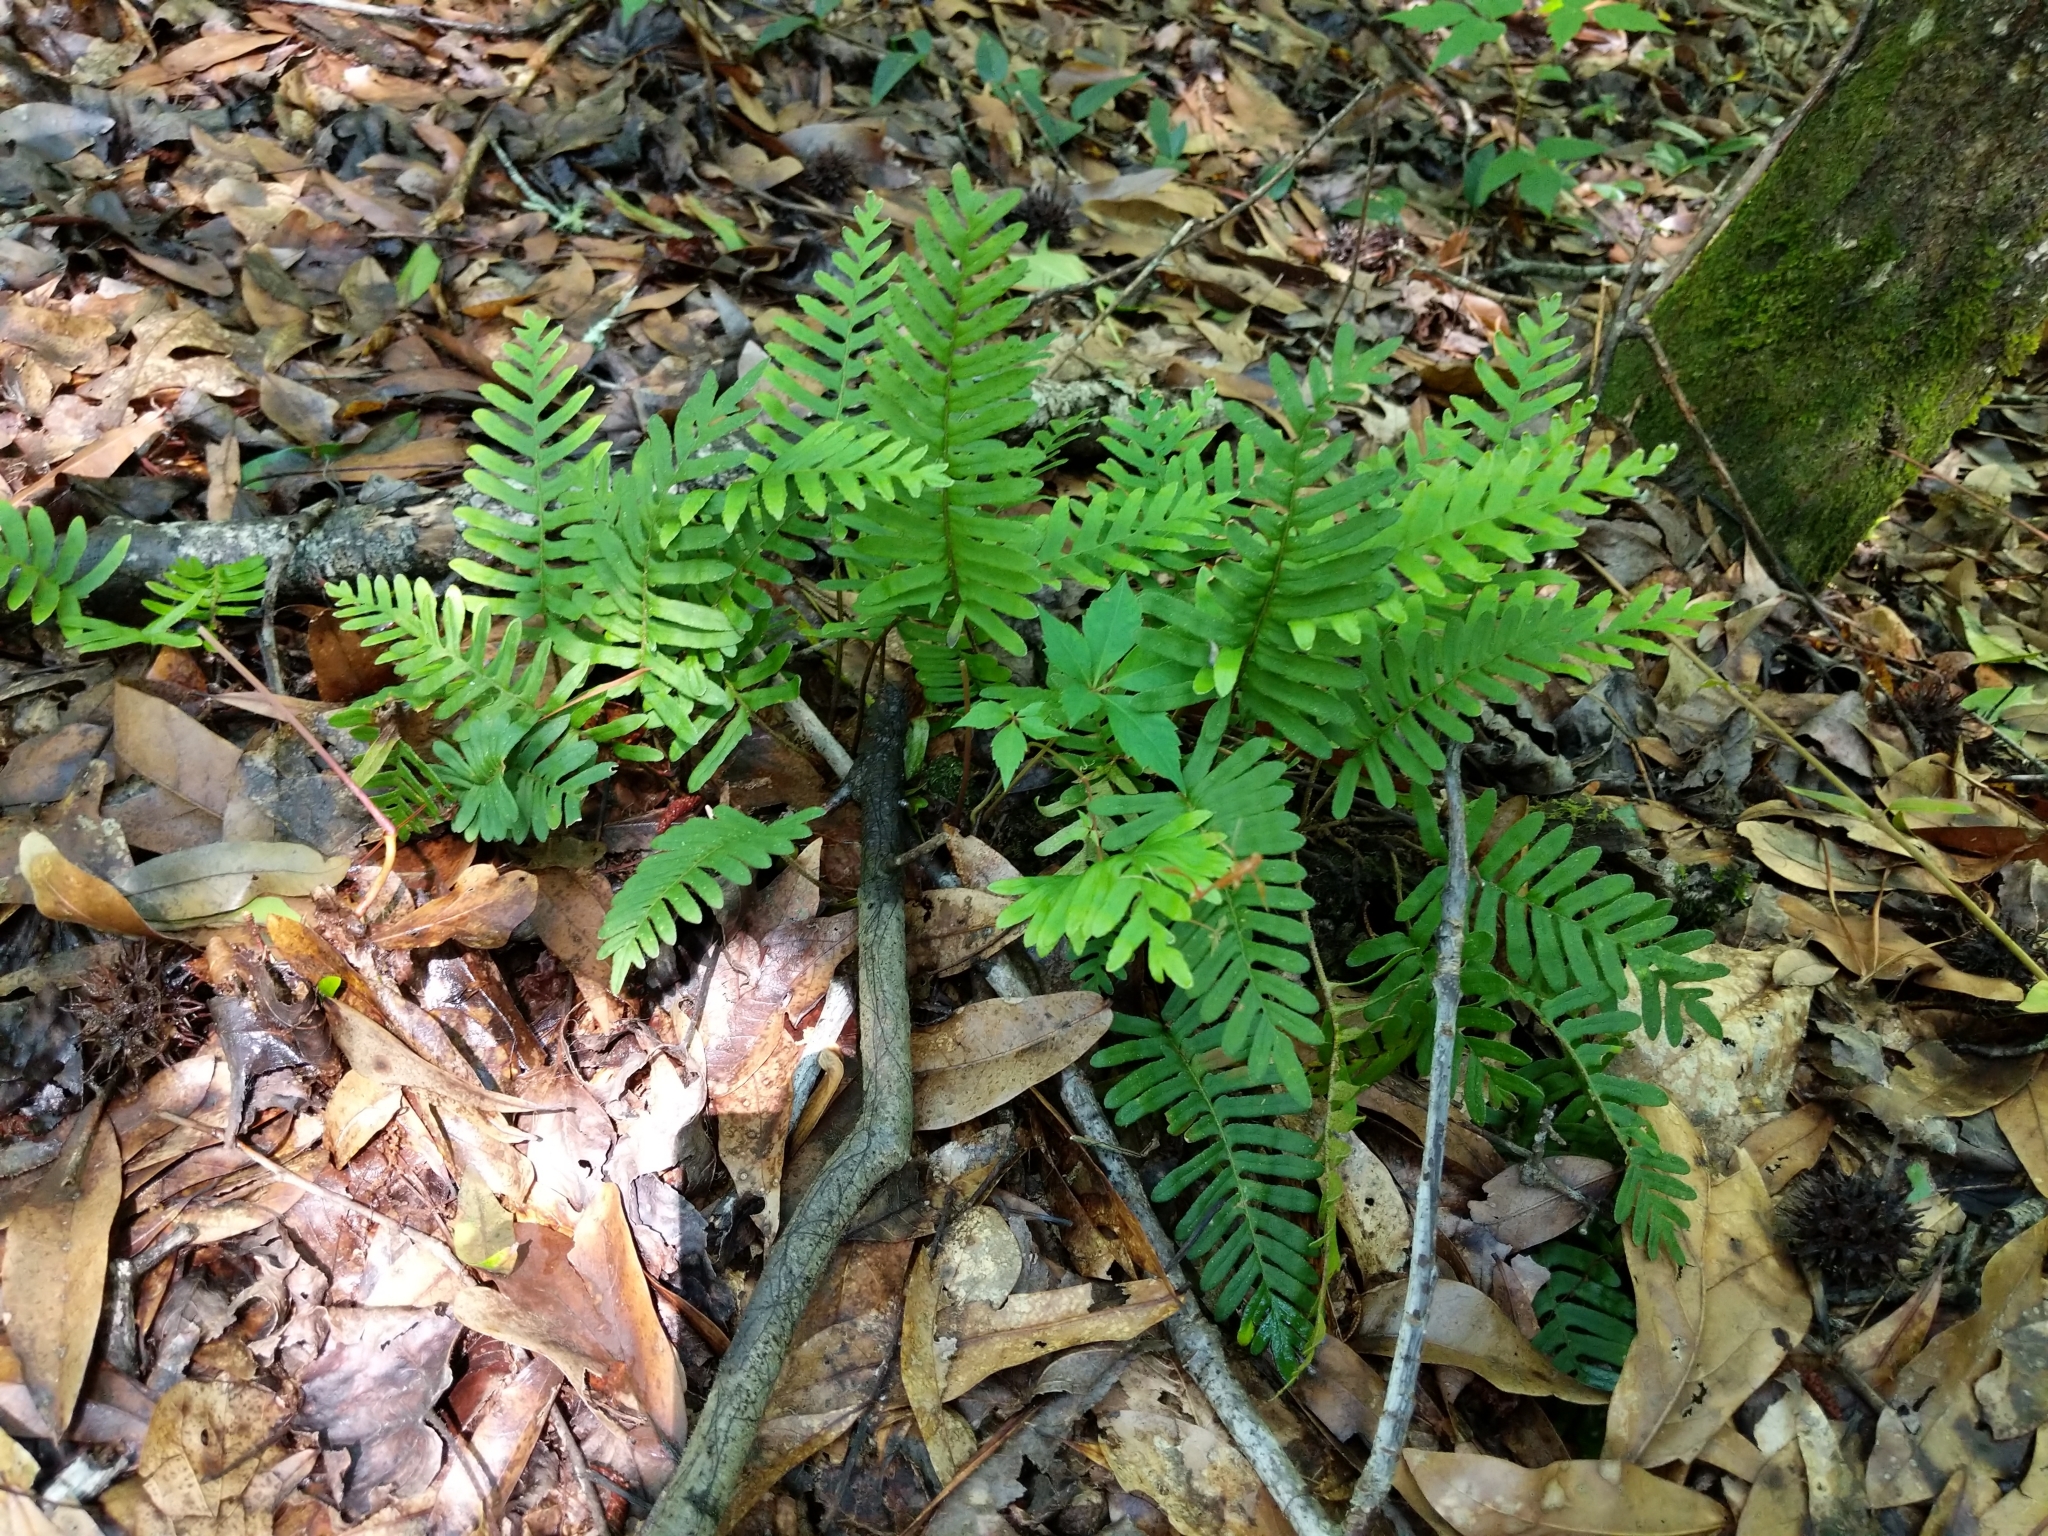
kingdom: Plantae
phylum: Tracheophyta
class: Polypodiopsida
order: Polypodiales
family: Polypodiaceae
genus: Pleopeltis
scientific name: Pleopeltis michauxiana
